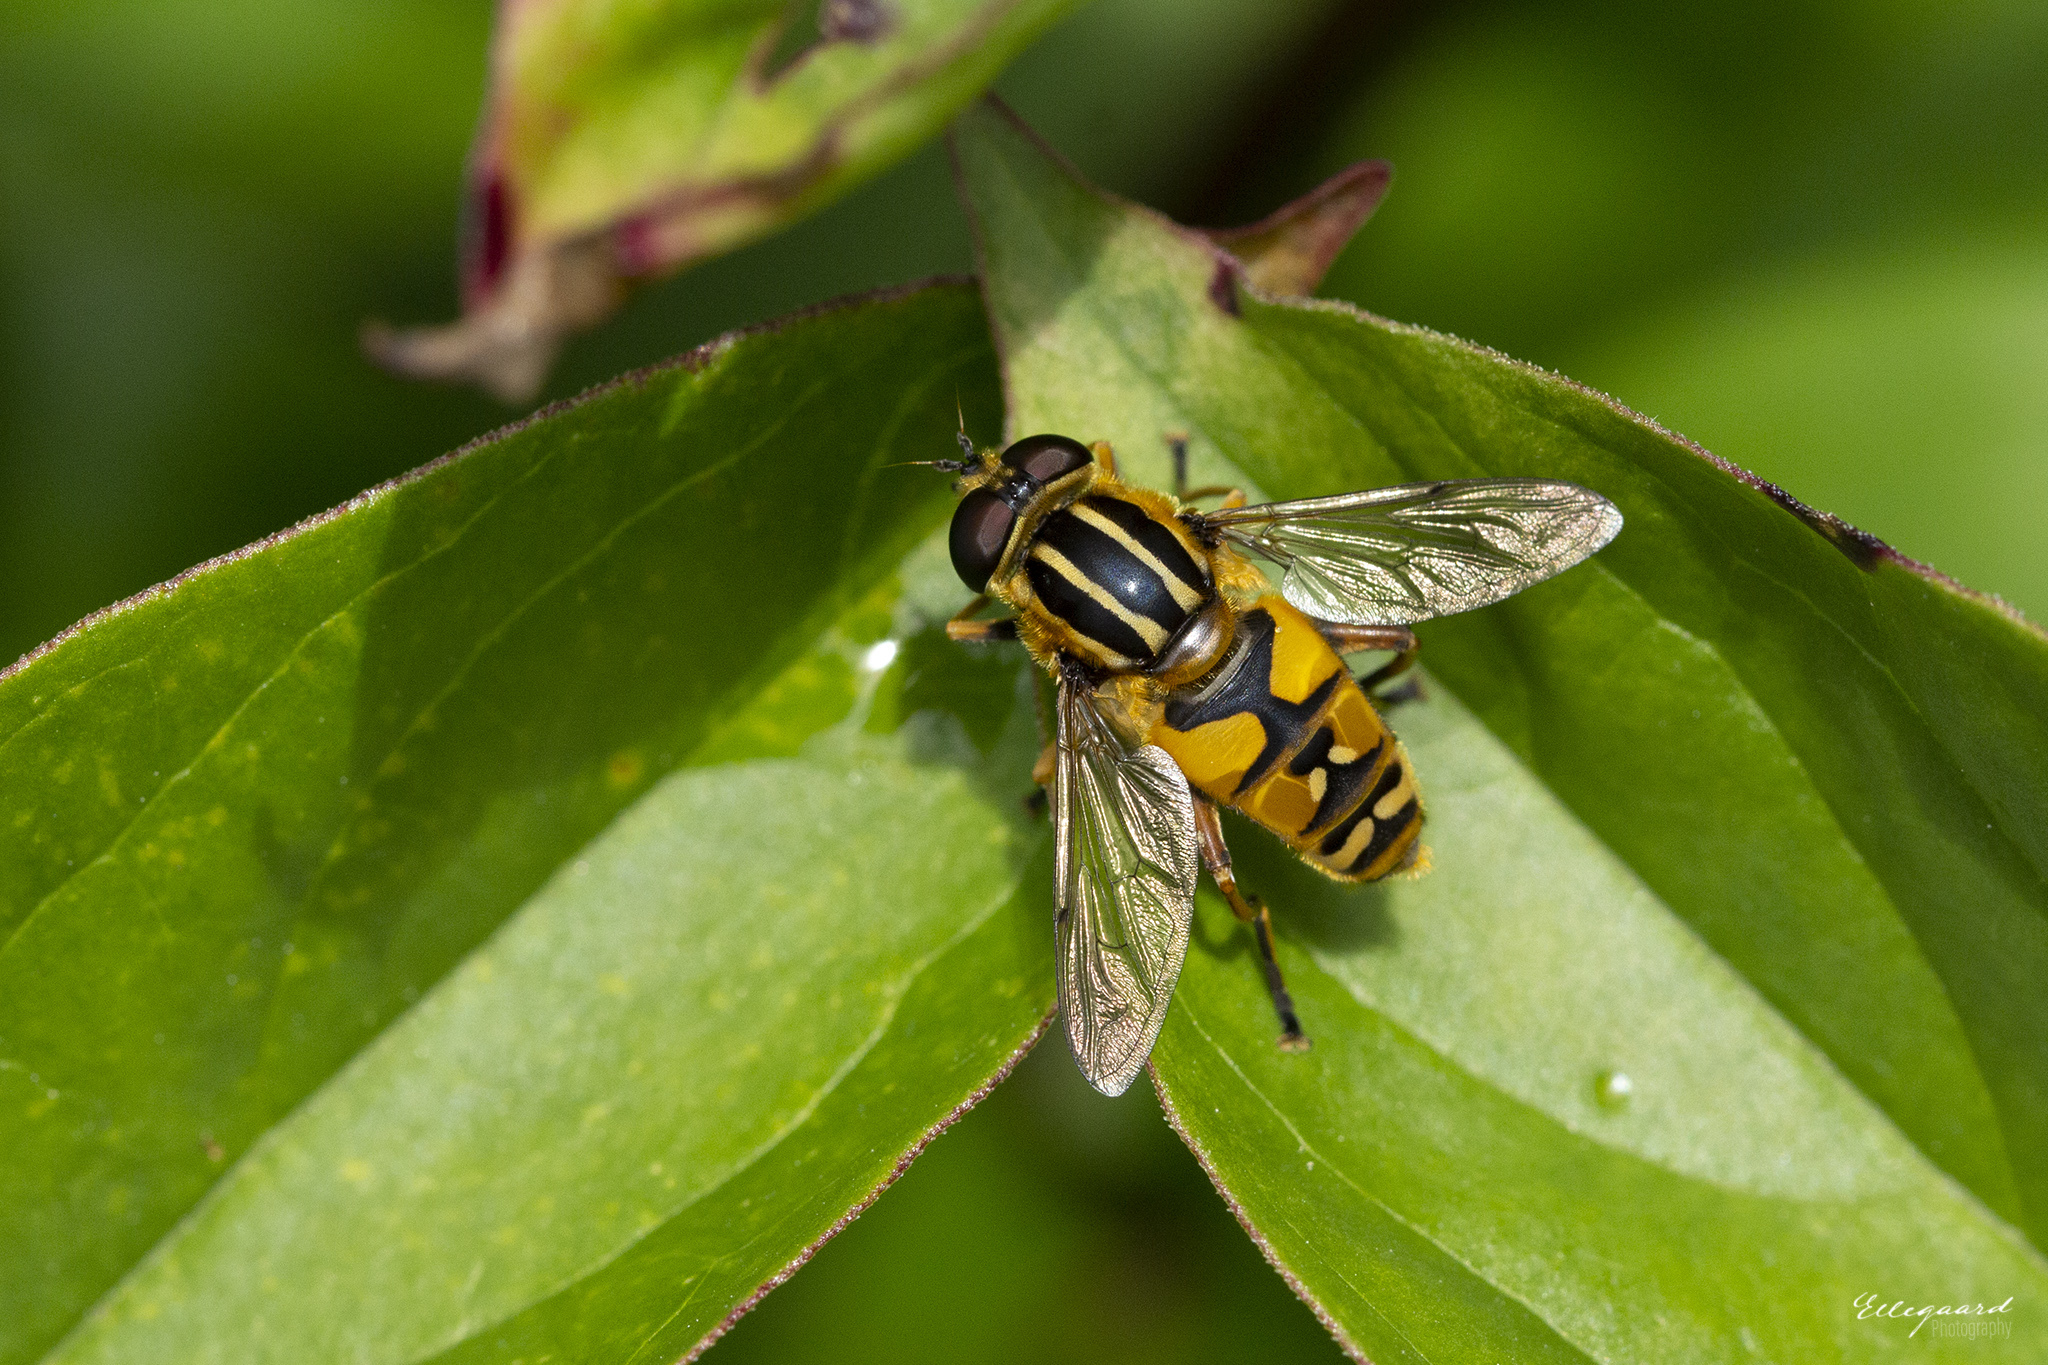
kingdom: Animalia
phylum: Arthropoda
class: Insecta
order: Diptera
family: Syrphidae
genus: Helophilus
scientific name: Helophilus pendulus
